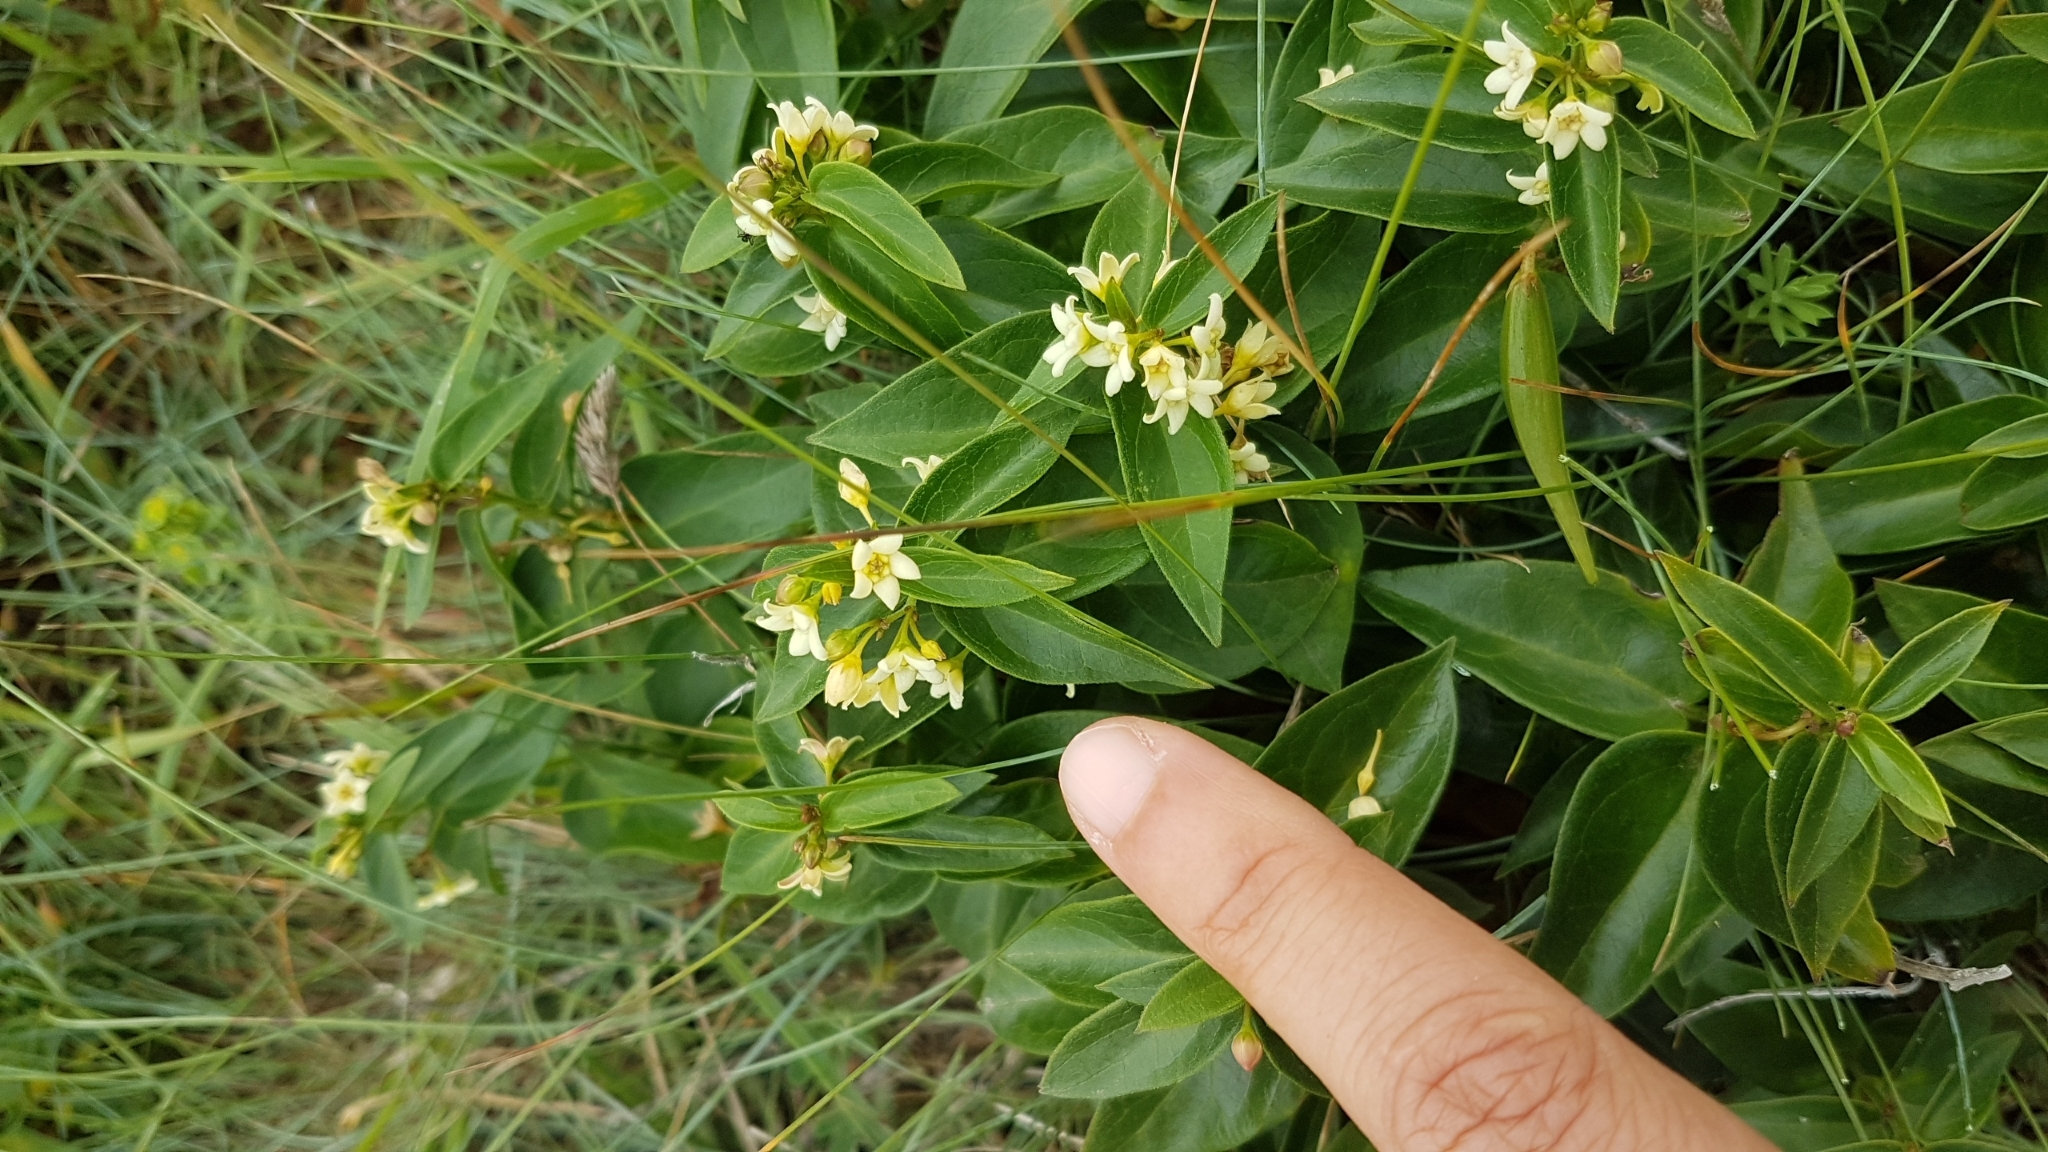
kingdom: Plantae
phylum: Tracheophyta
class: Magnoliopsida
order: Gentianales
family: Apocynaceae
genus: Vincetoxicum
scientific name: Vincetoxicum hirundinaria
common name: White swallowwort
